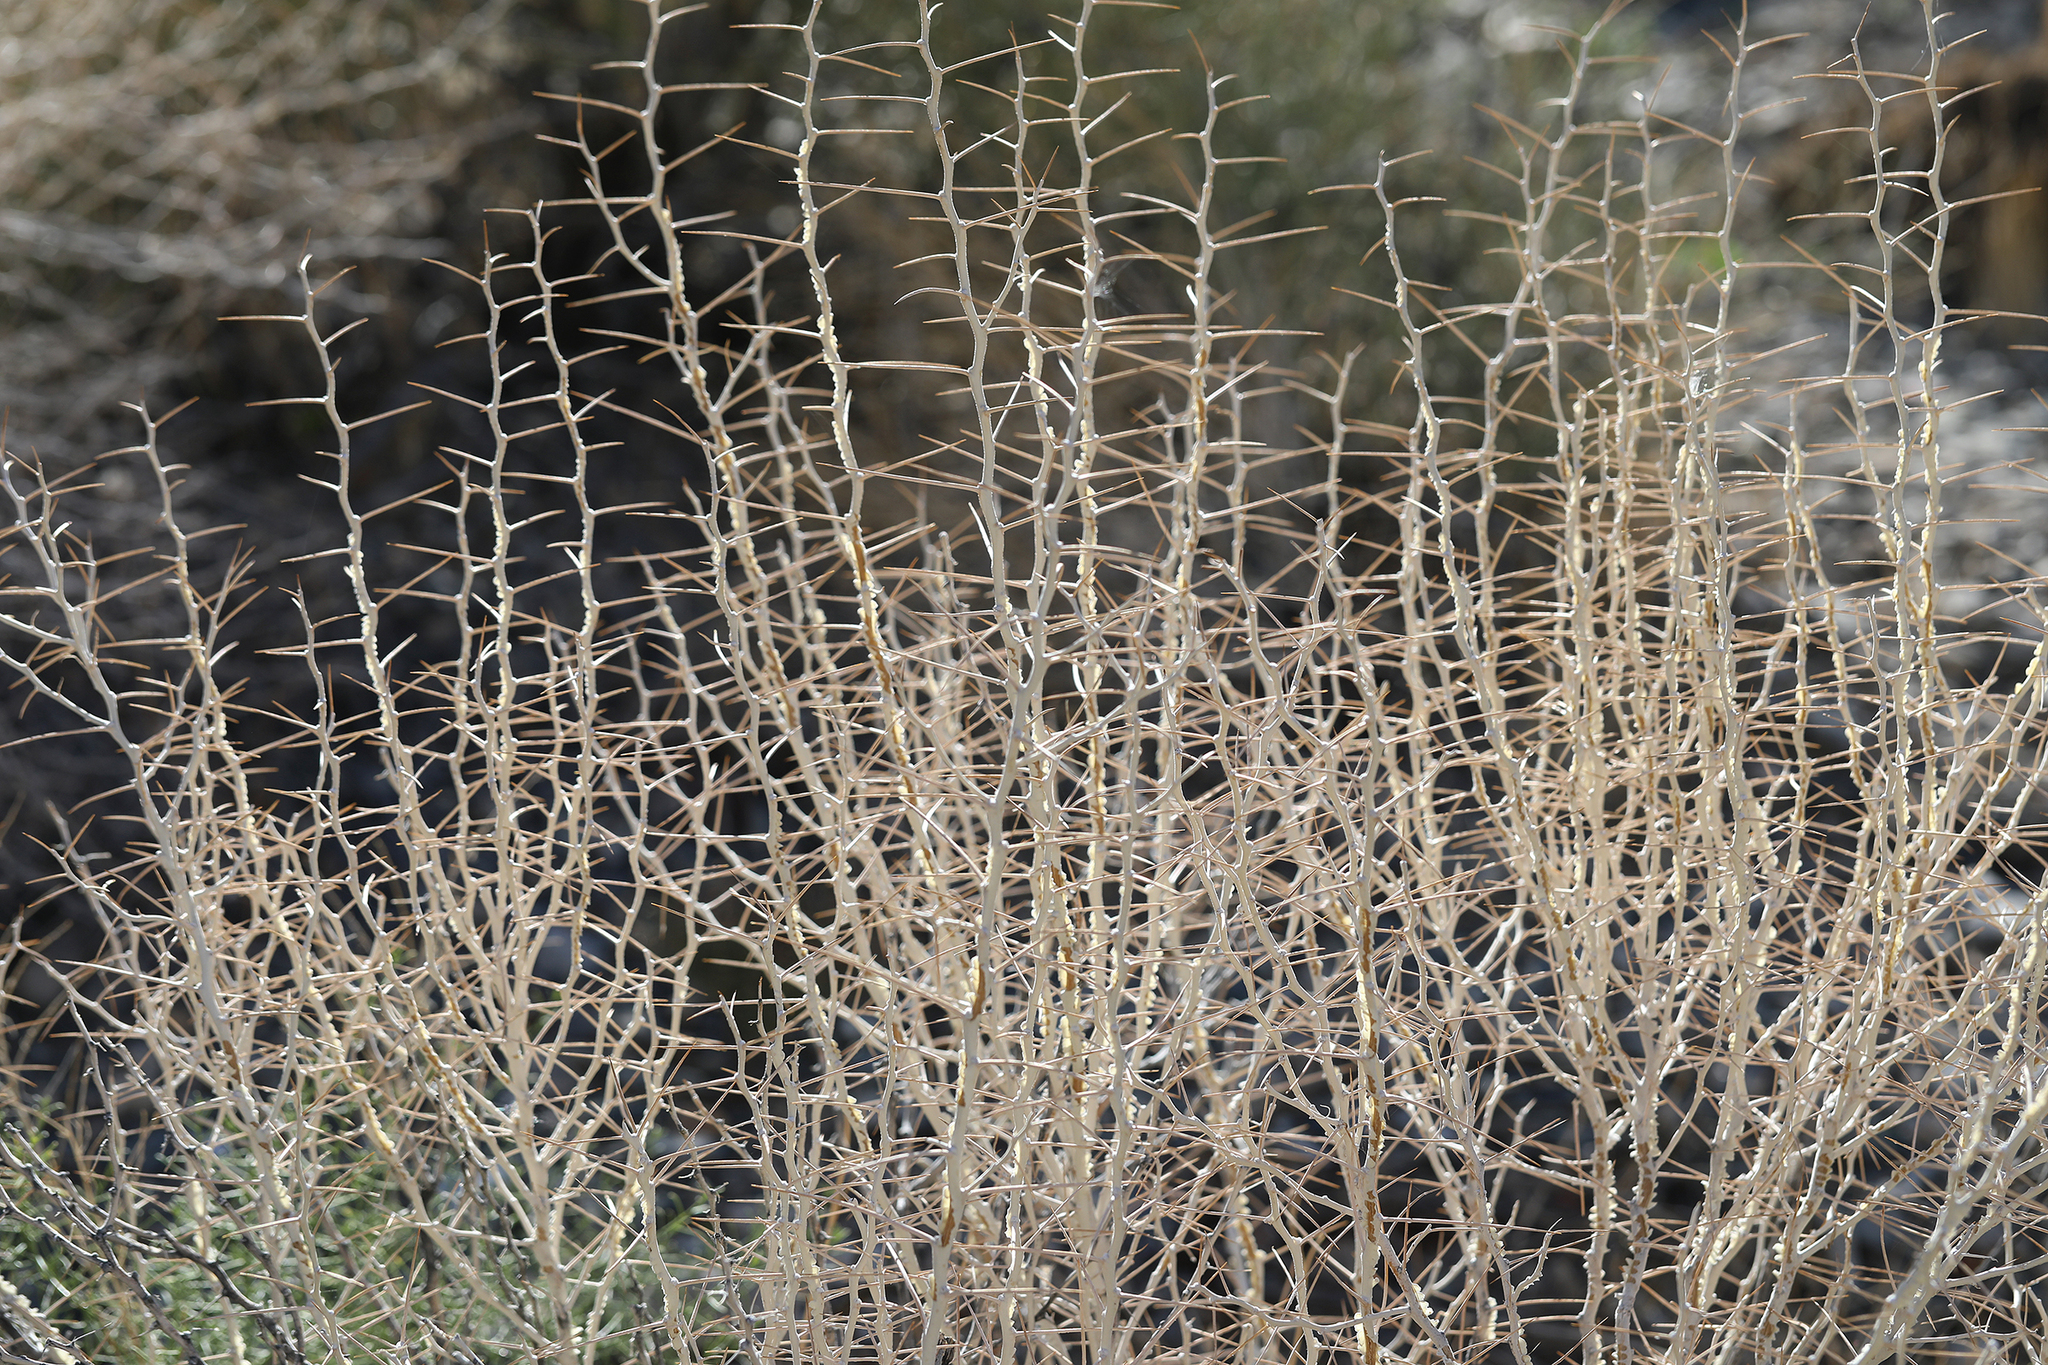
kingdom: Plantae
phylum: Tracheophyta
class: Magnoliopsida
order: Asterales
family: Asteraceae
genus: Tetradymia
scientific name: Tetradymia axillaris
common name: Long-spine horsebrush
